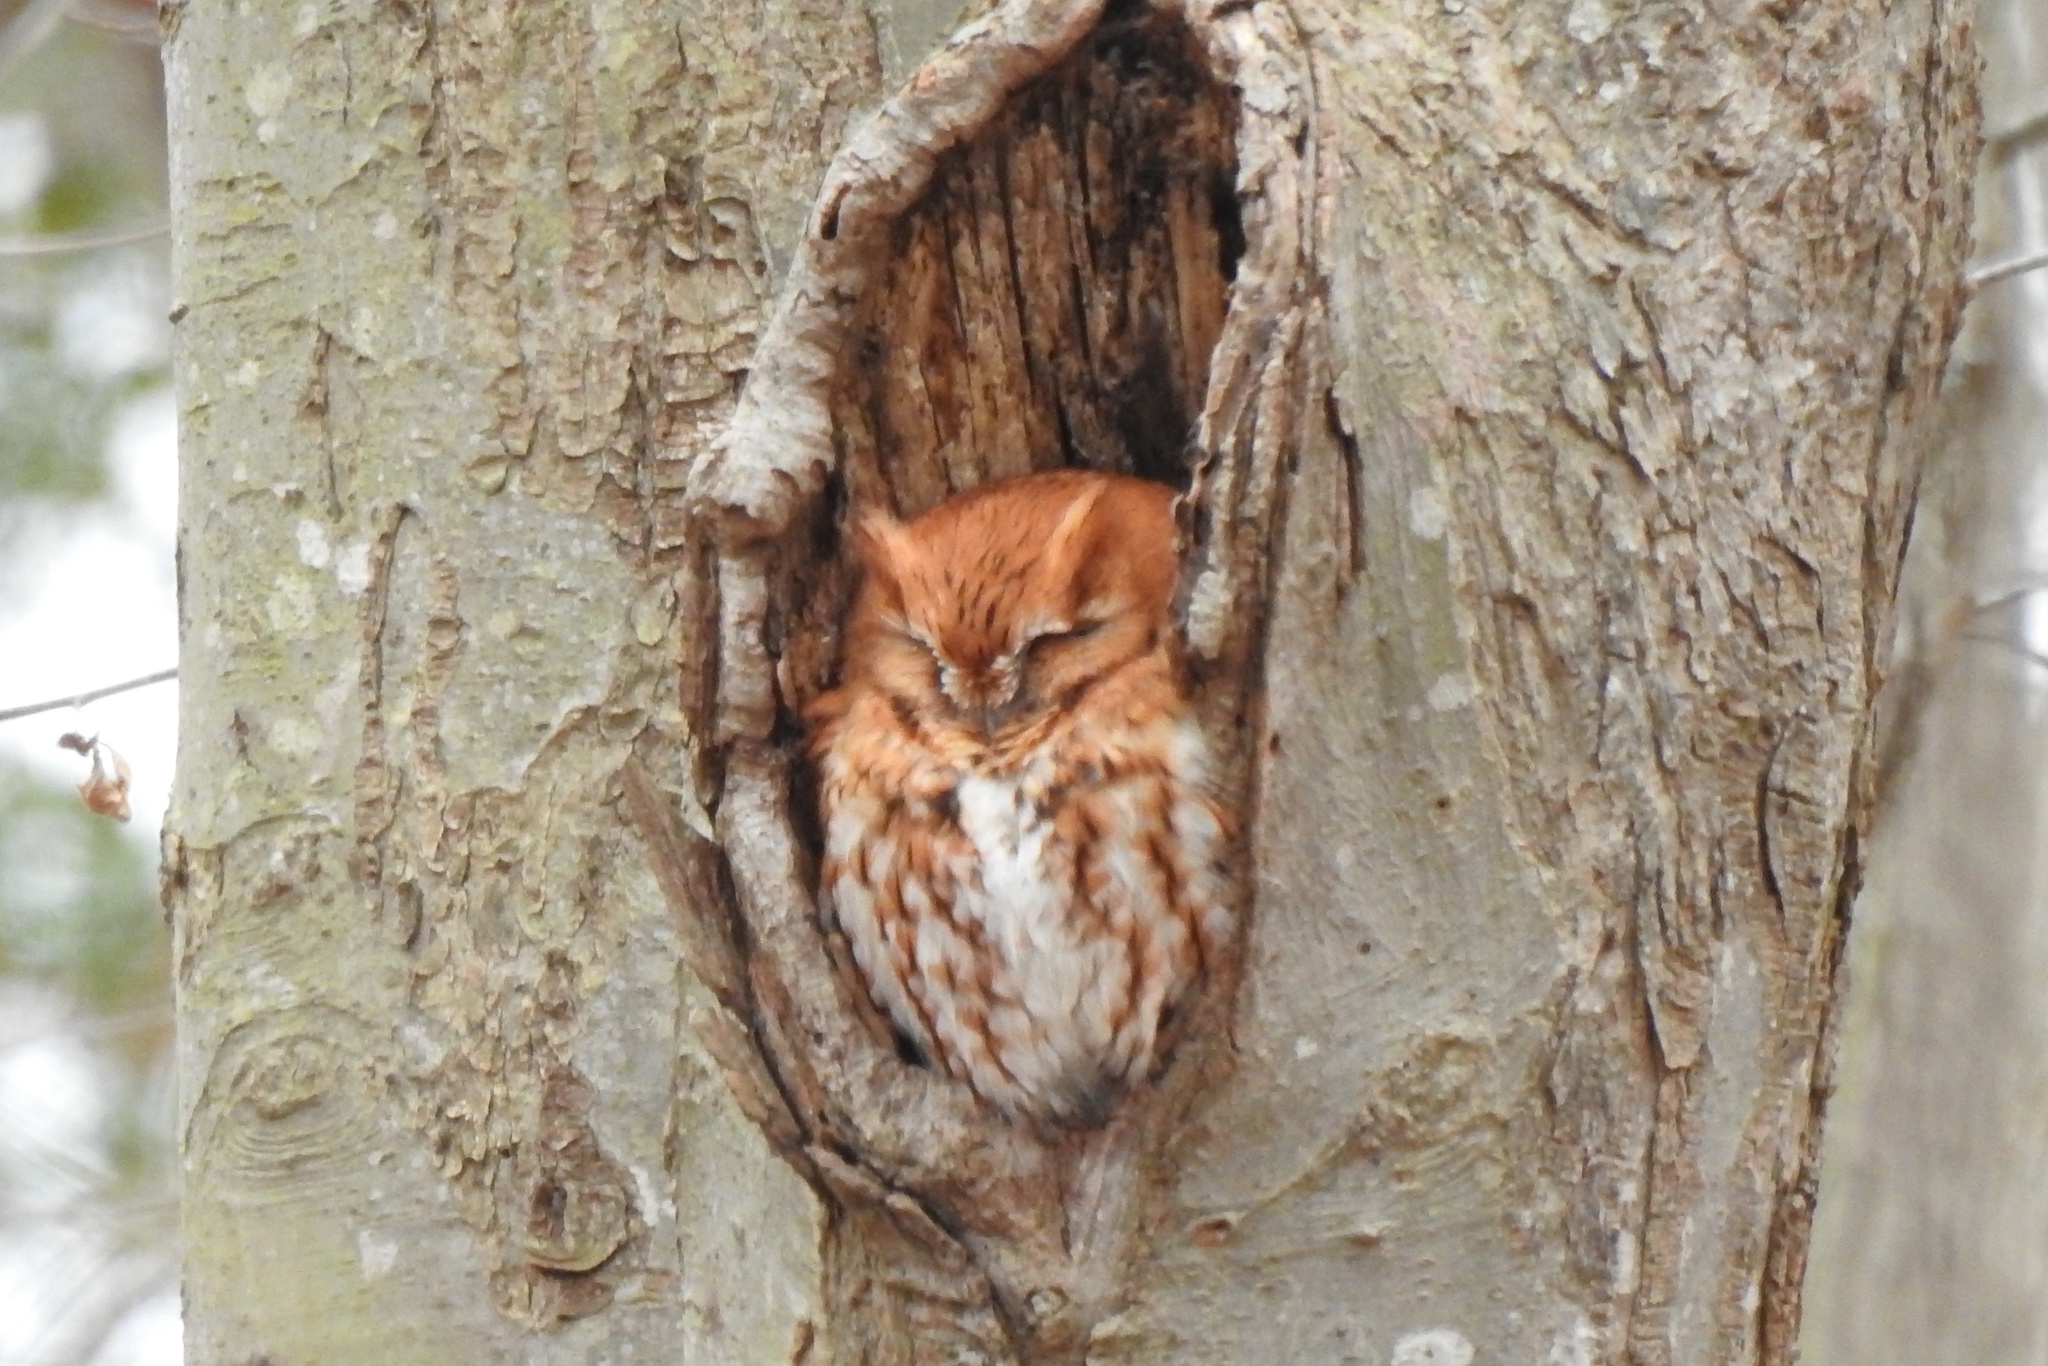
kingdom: Animalia
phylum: Chordata
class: Aves
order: Strigiformes
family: Strigidae
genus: Megascops
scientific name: Megascops asio
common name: Eastern screech-owl
